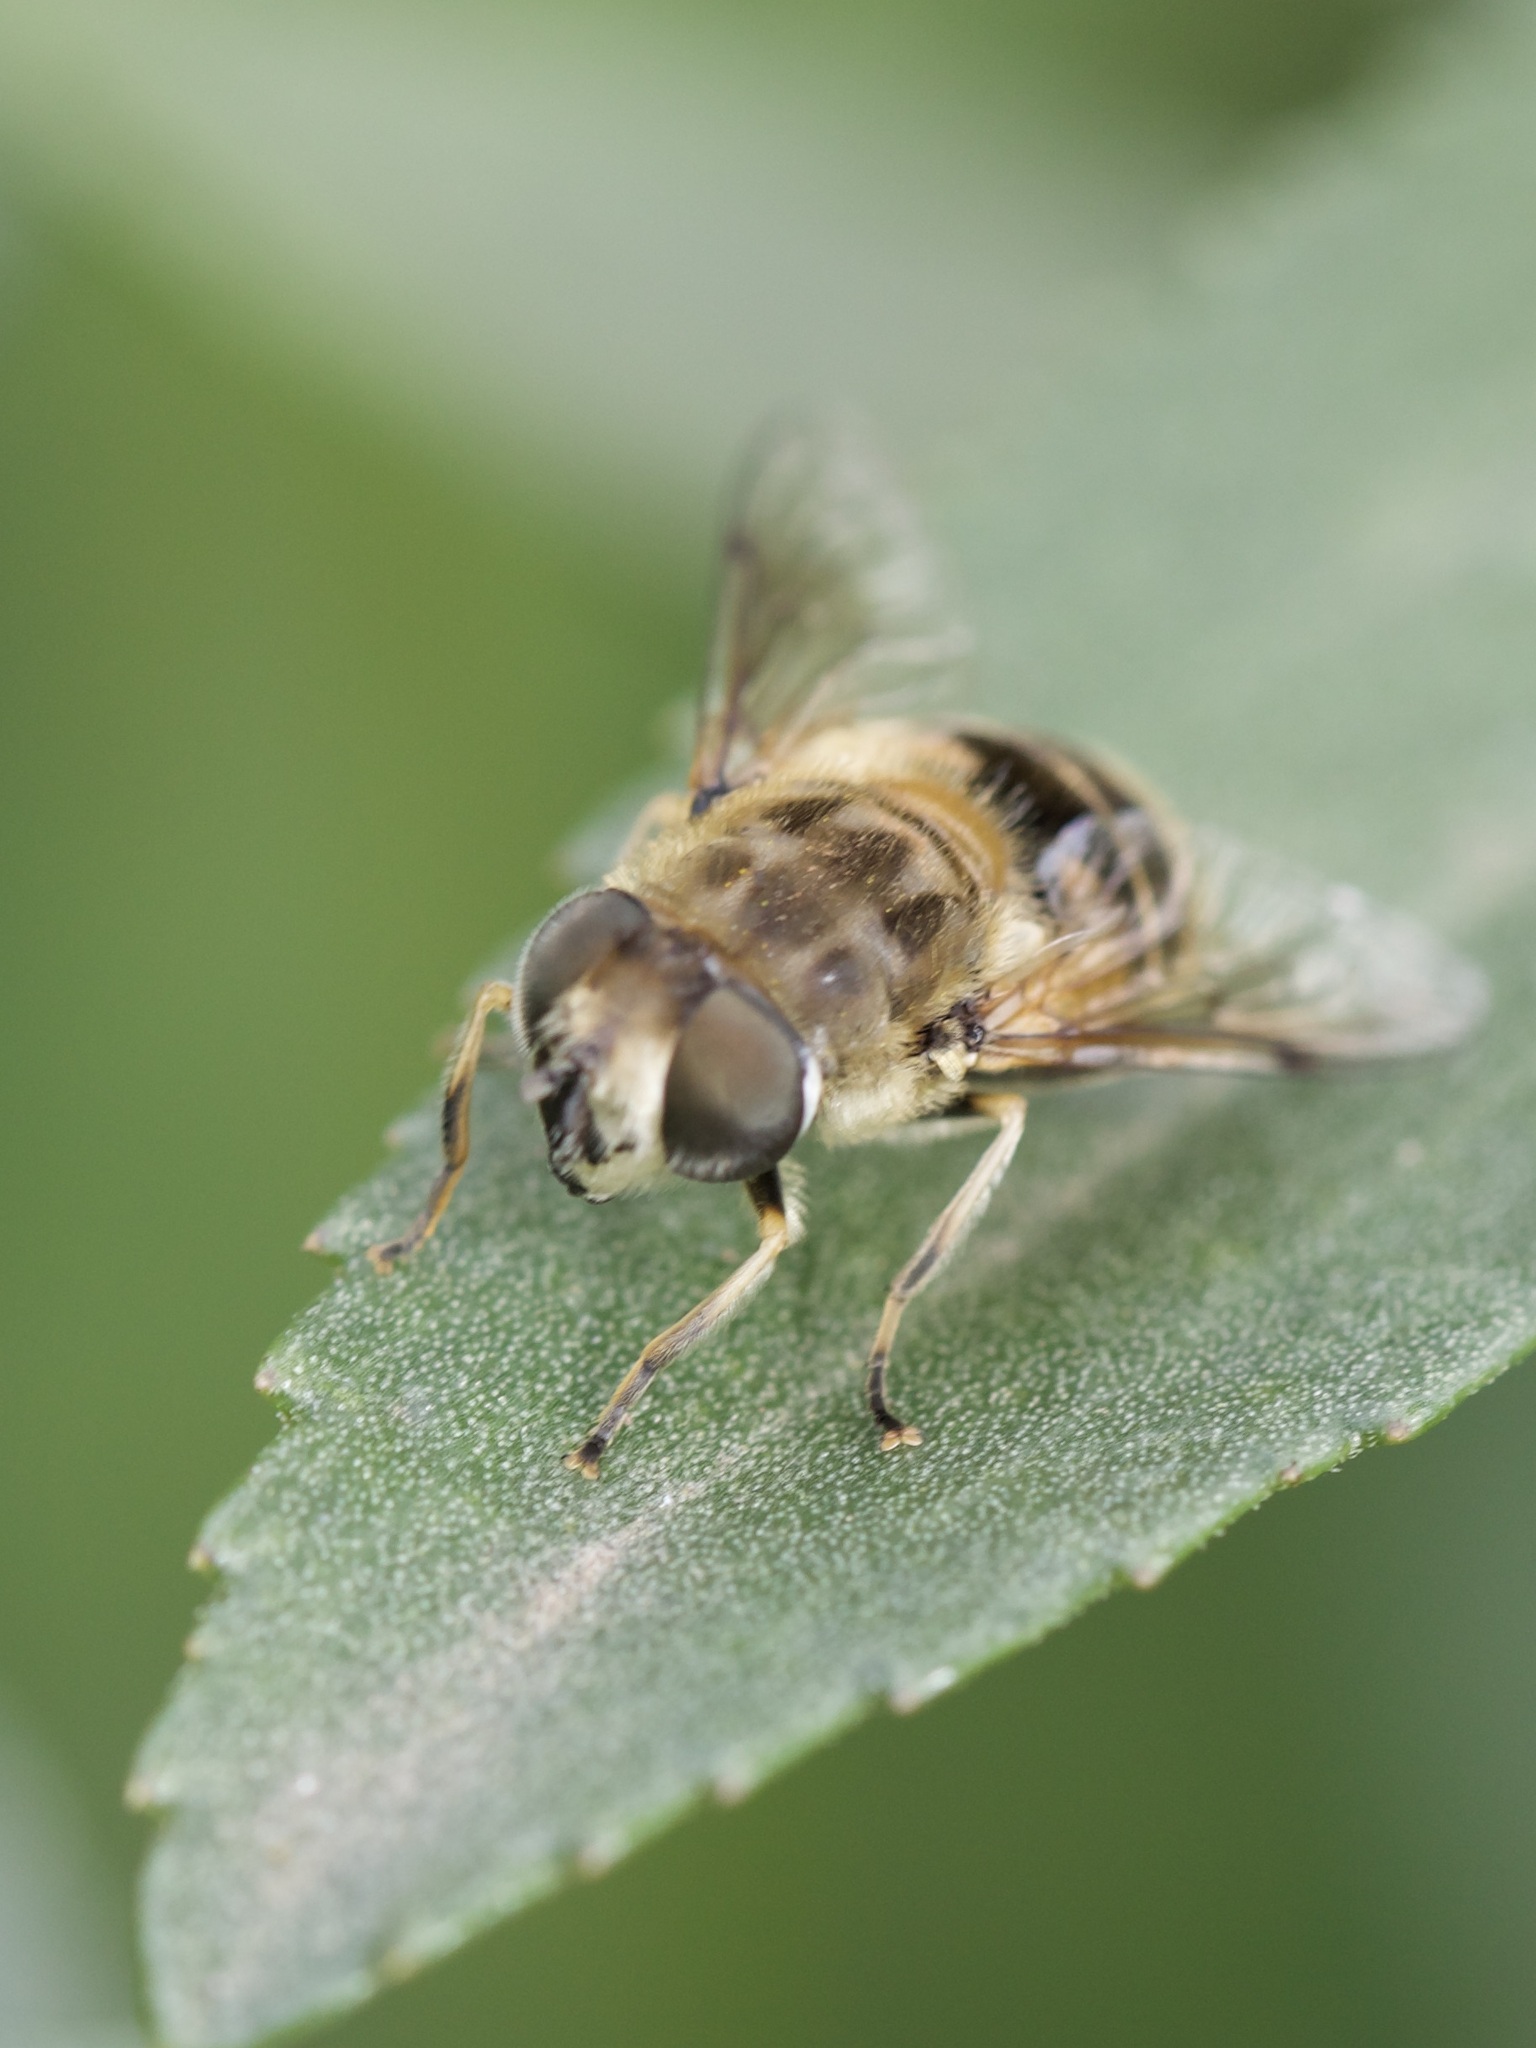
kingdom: Animalia
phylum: Arthropoda
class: Insecta
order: Diptera
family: Syrphidae
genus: Eristalis
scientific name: Eristalis arbustorum
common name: Hover fly
